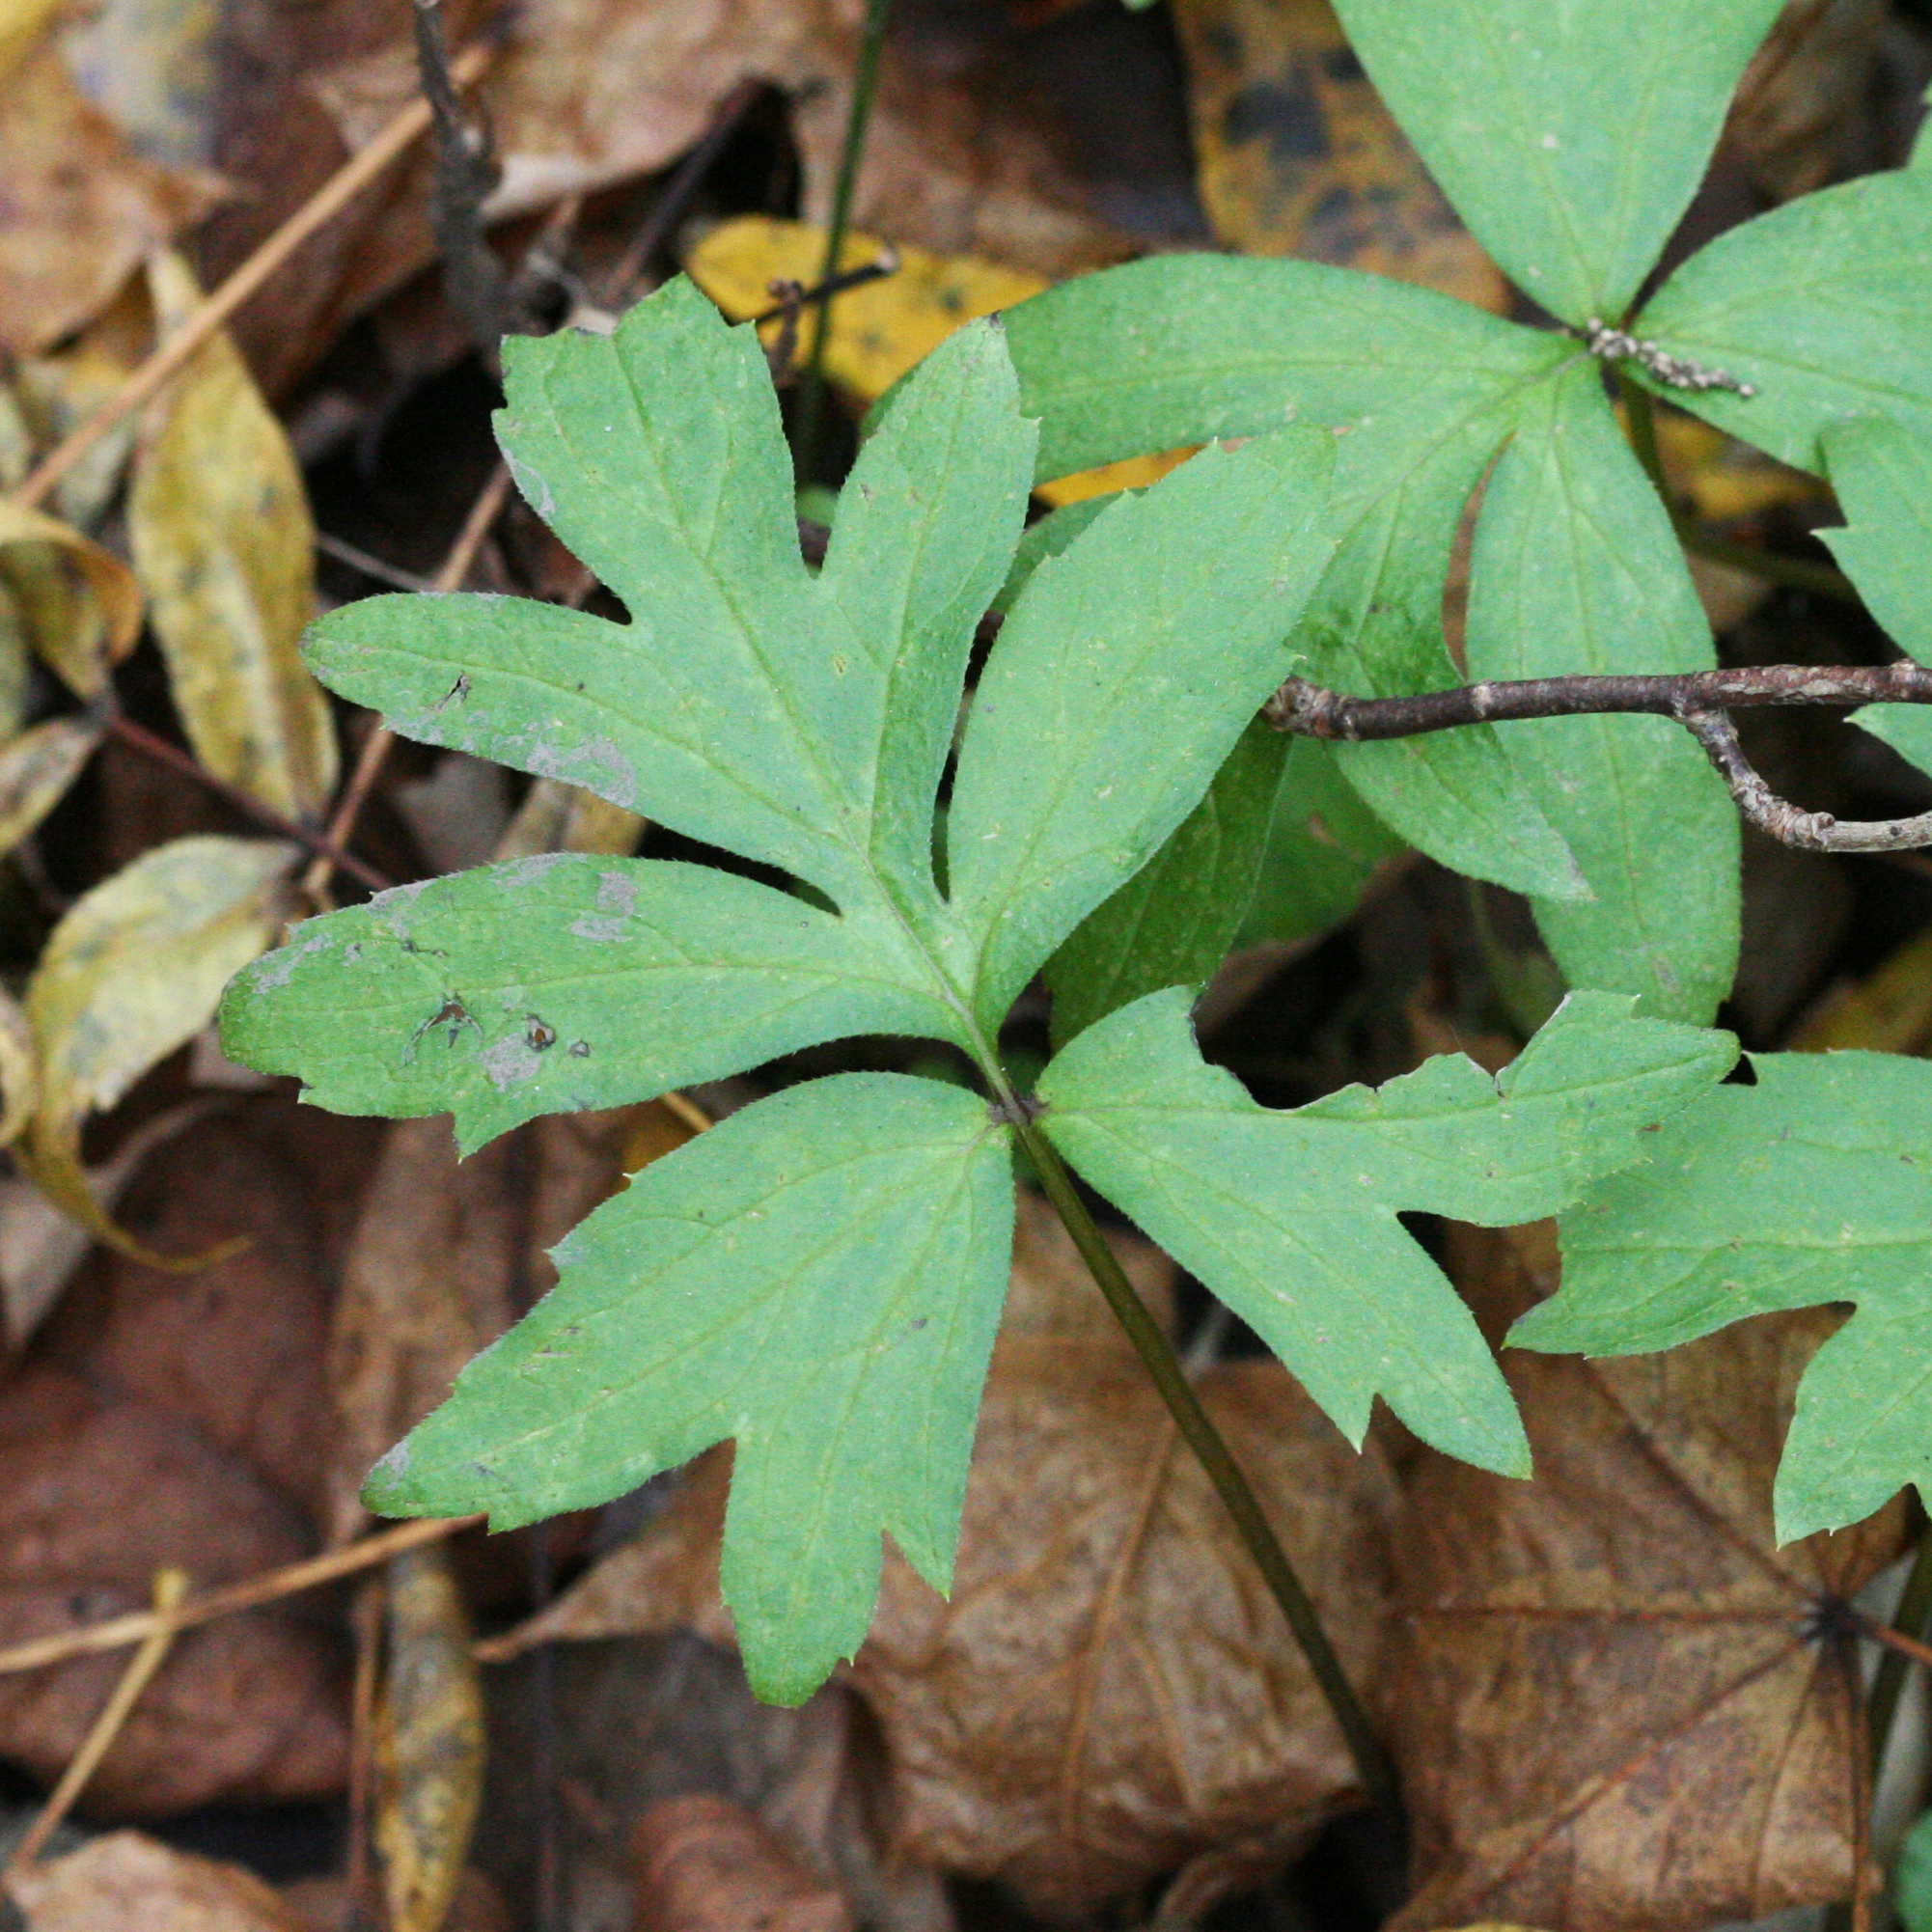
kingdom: Plantae
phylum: Tracheophyta
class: Magnoliopsida
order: Boraginales
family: Hydrophyllaceae
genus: Hydrophyllum
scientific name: Hydrophyllum virginianum
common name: Virginia waterleaf
